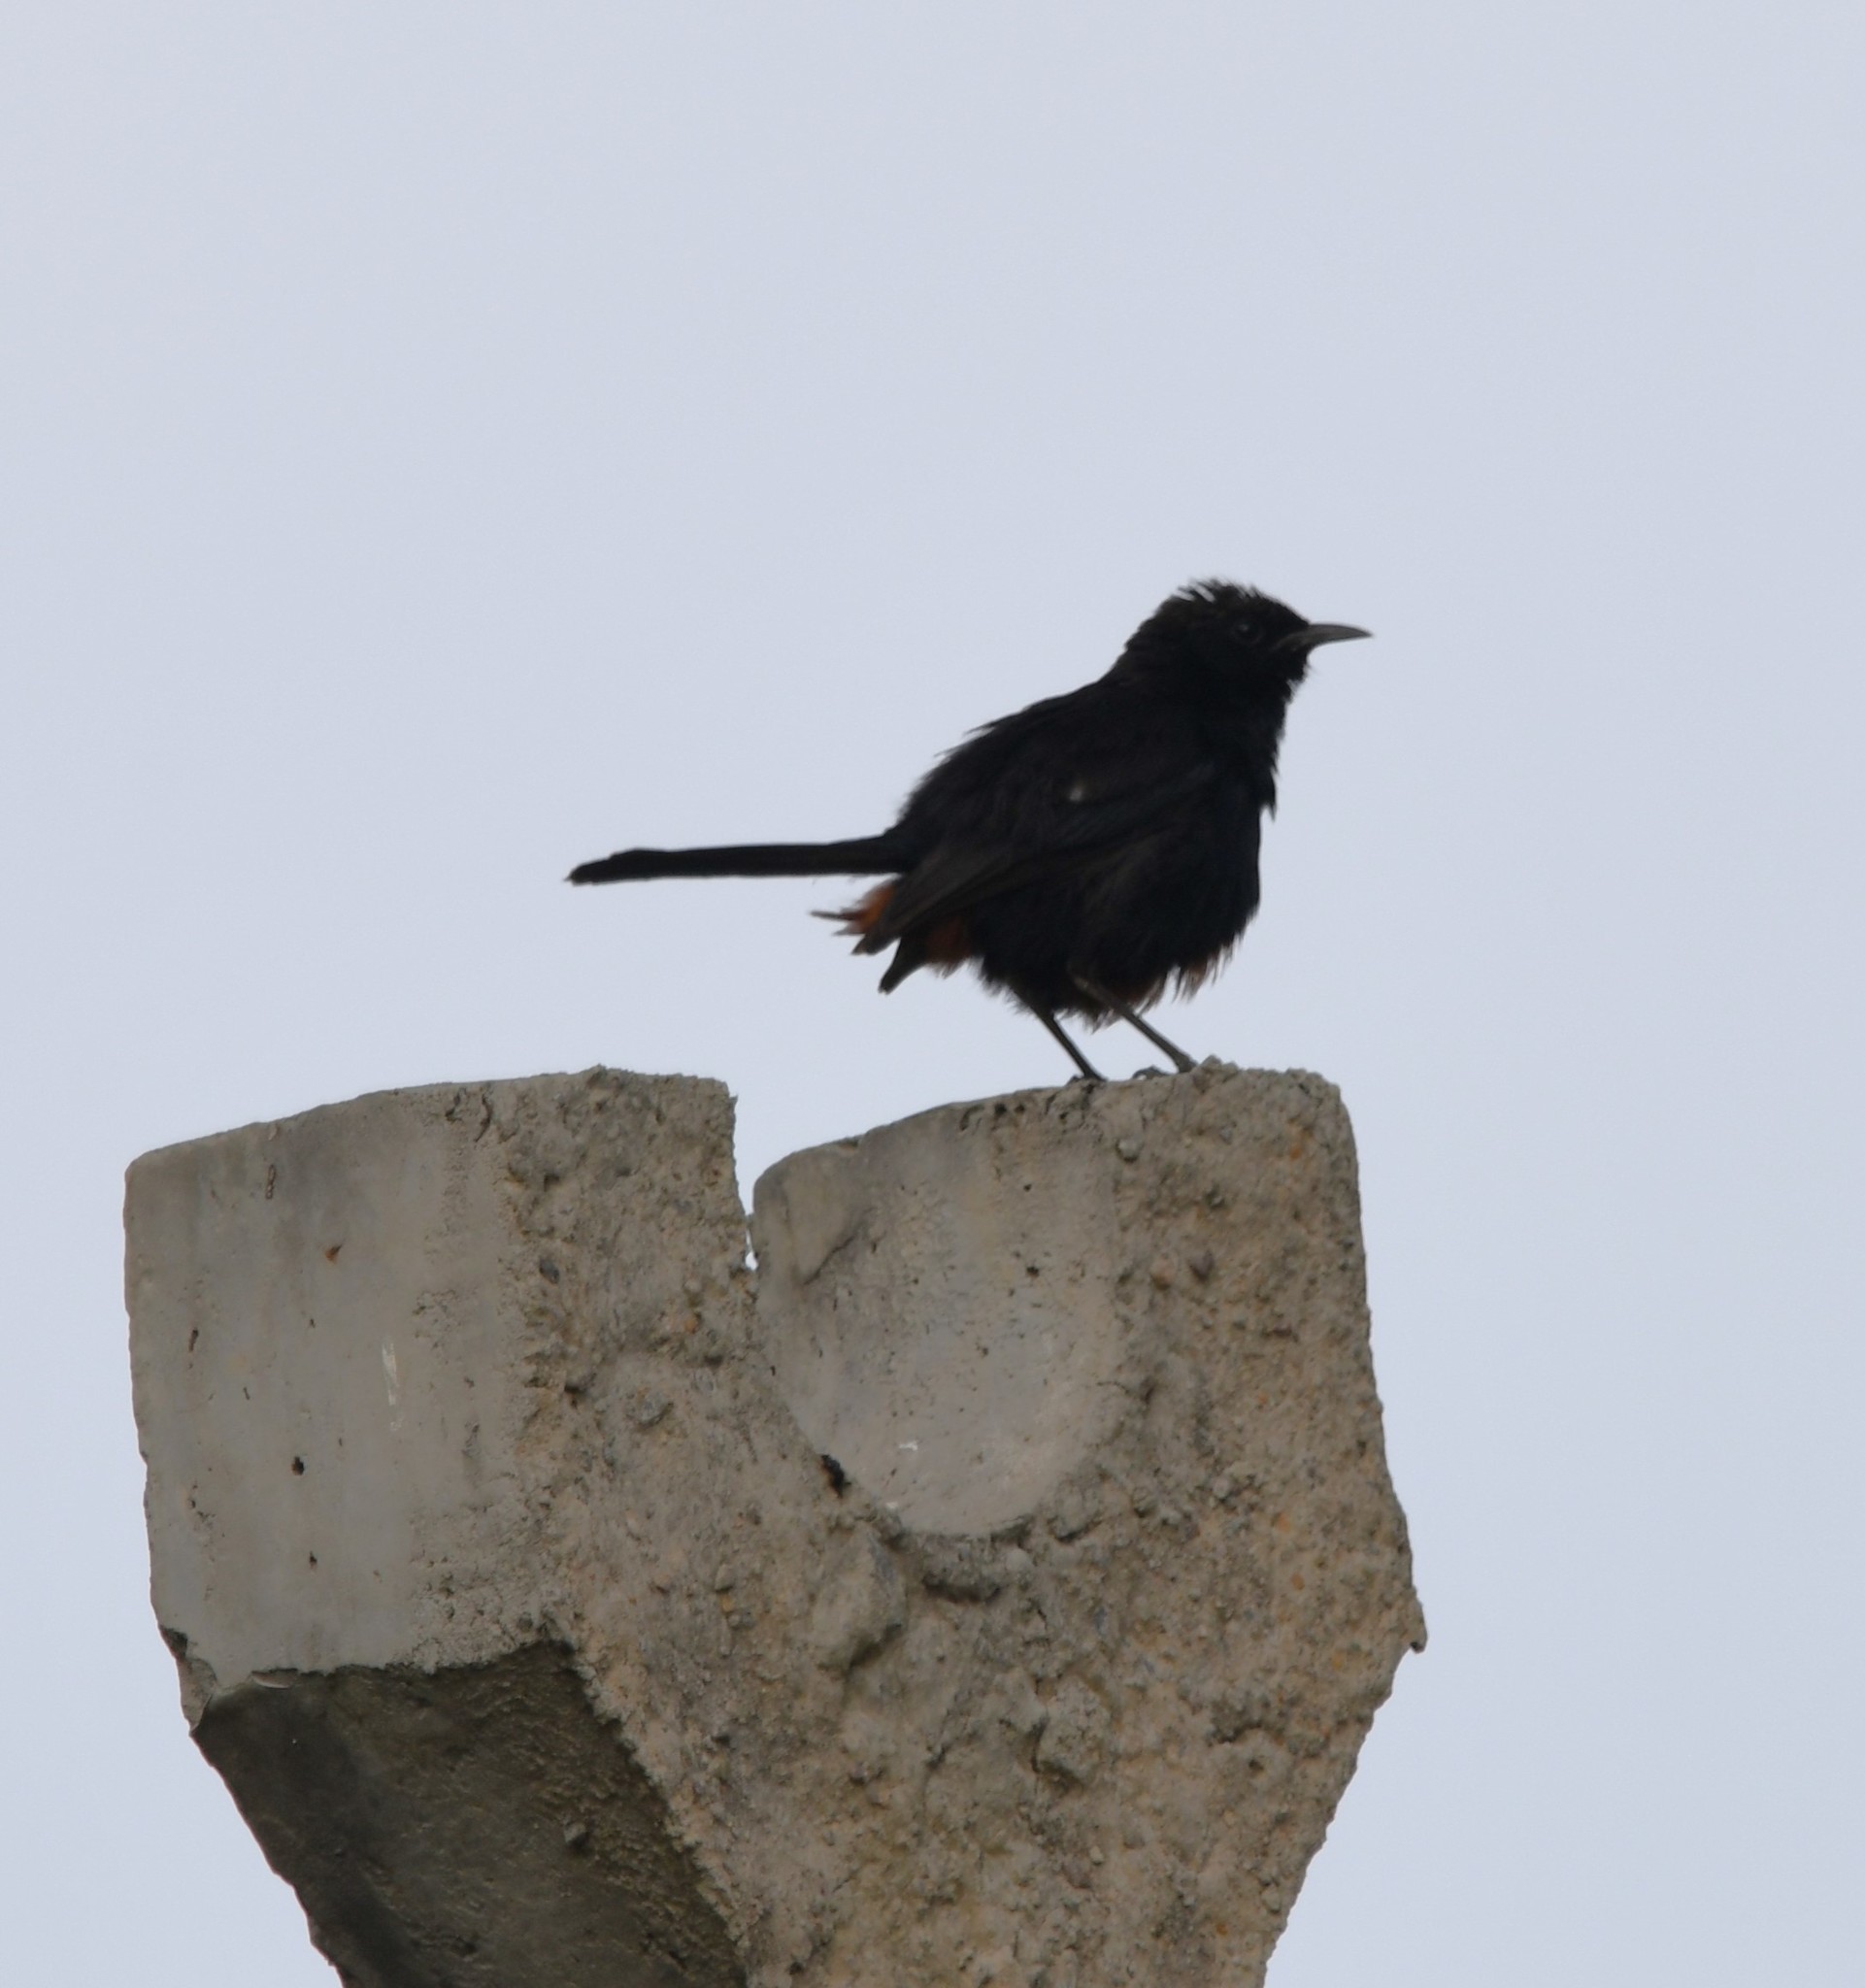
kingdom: Animalia
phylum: Chordata
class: Aves
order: Passeriformes
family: Muscicapidae
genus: Saxicoloides
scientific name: Saxicoloides fulicatus
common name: Indian robin
